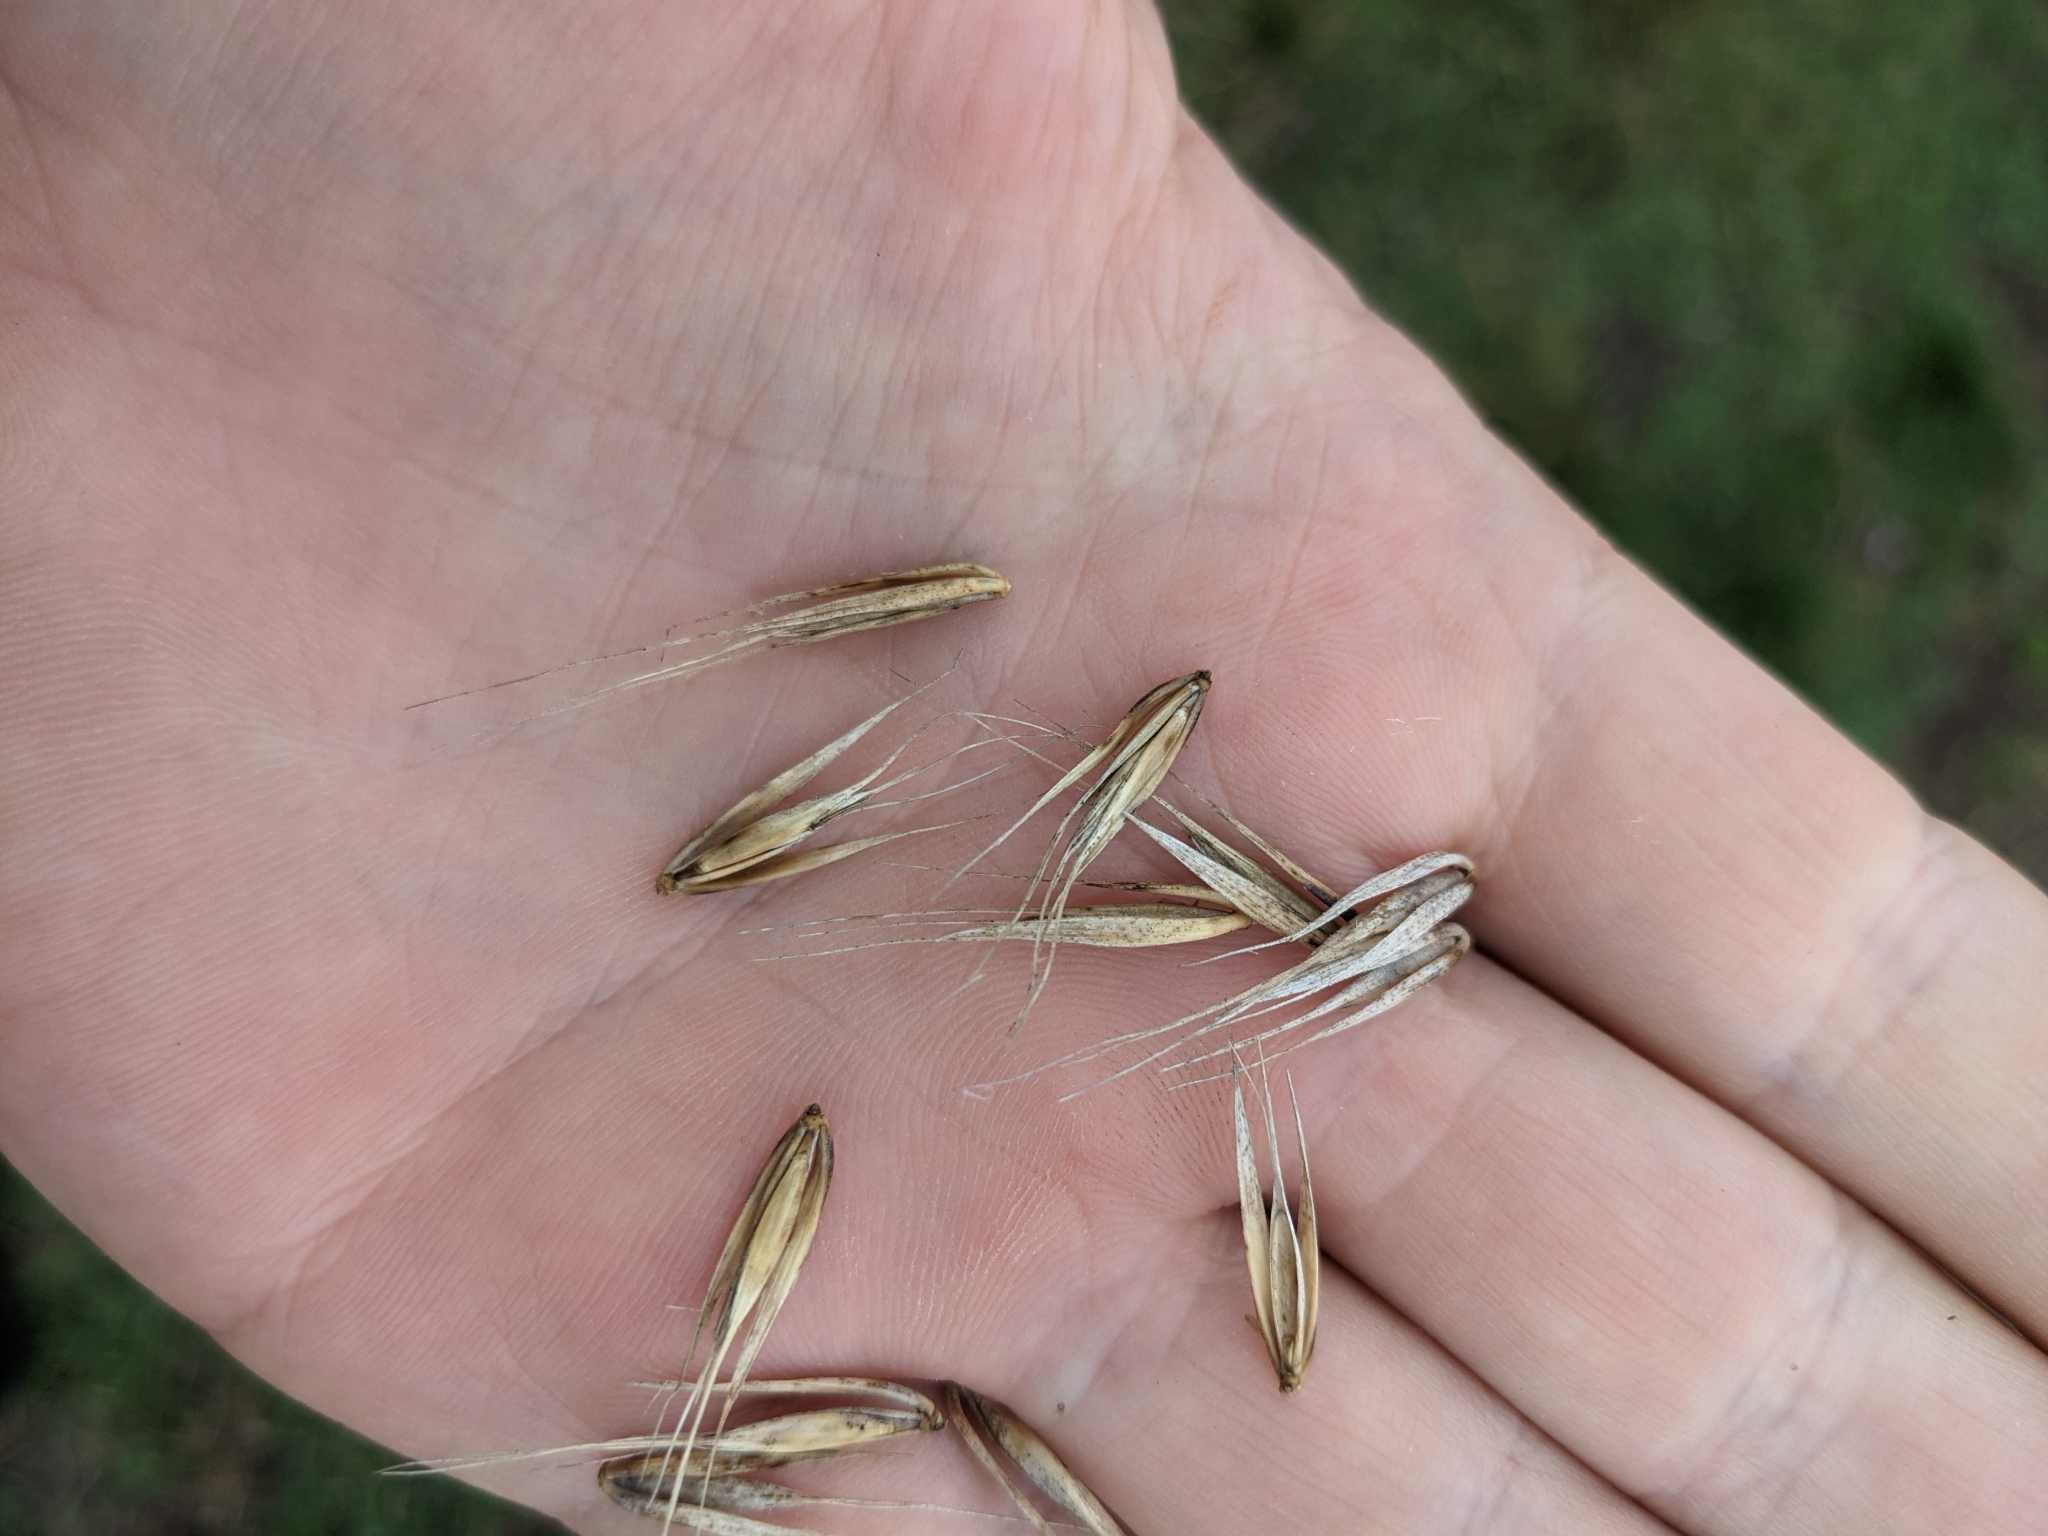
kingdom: Plantae
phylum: Tracheophyta
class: Liliopsida
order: Poales
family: Poaceae
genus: Elymus
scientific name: Elymus virginicus
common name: Common eastern wildrye
